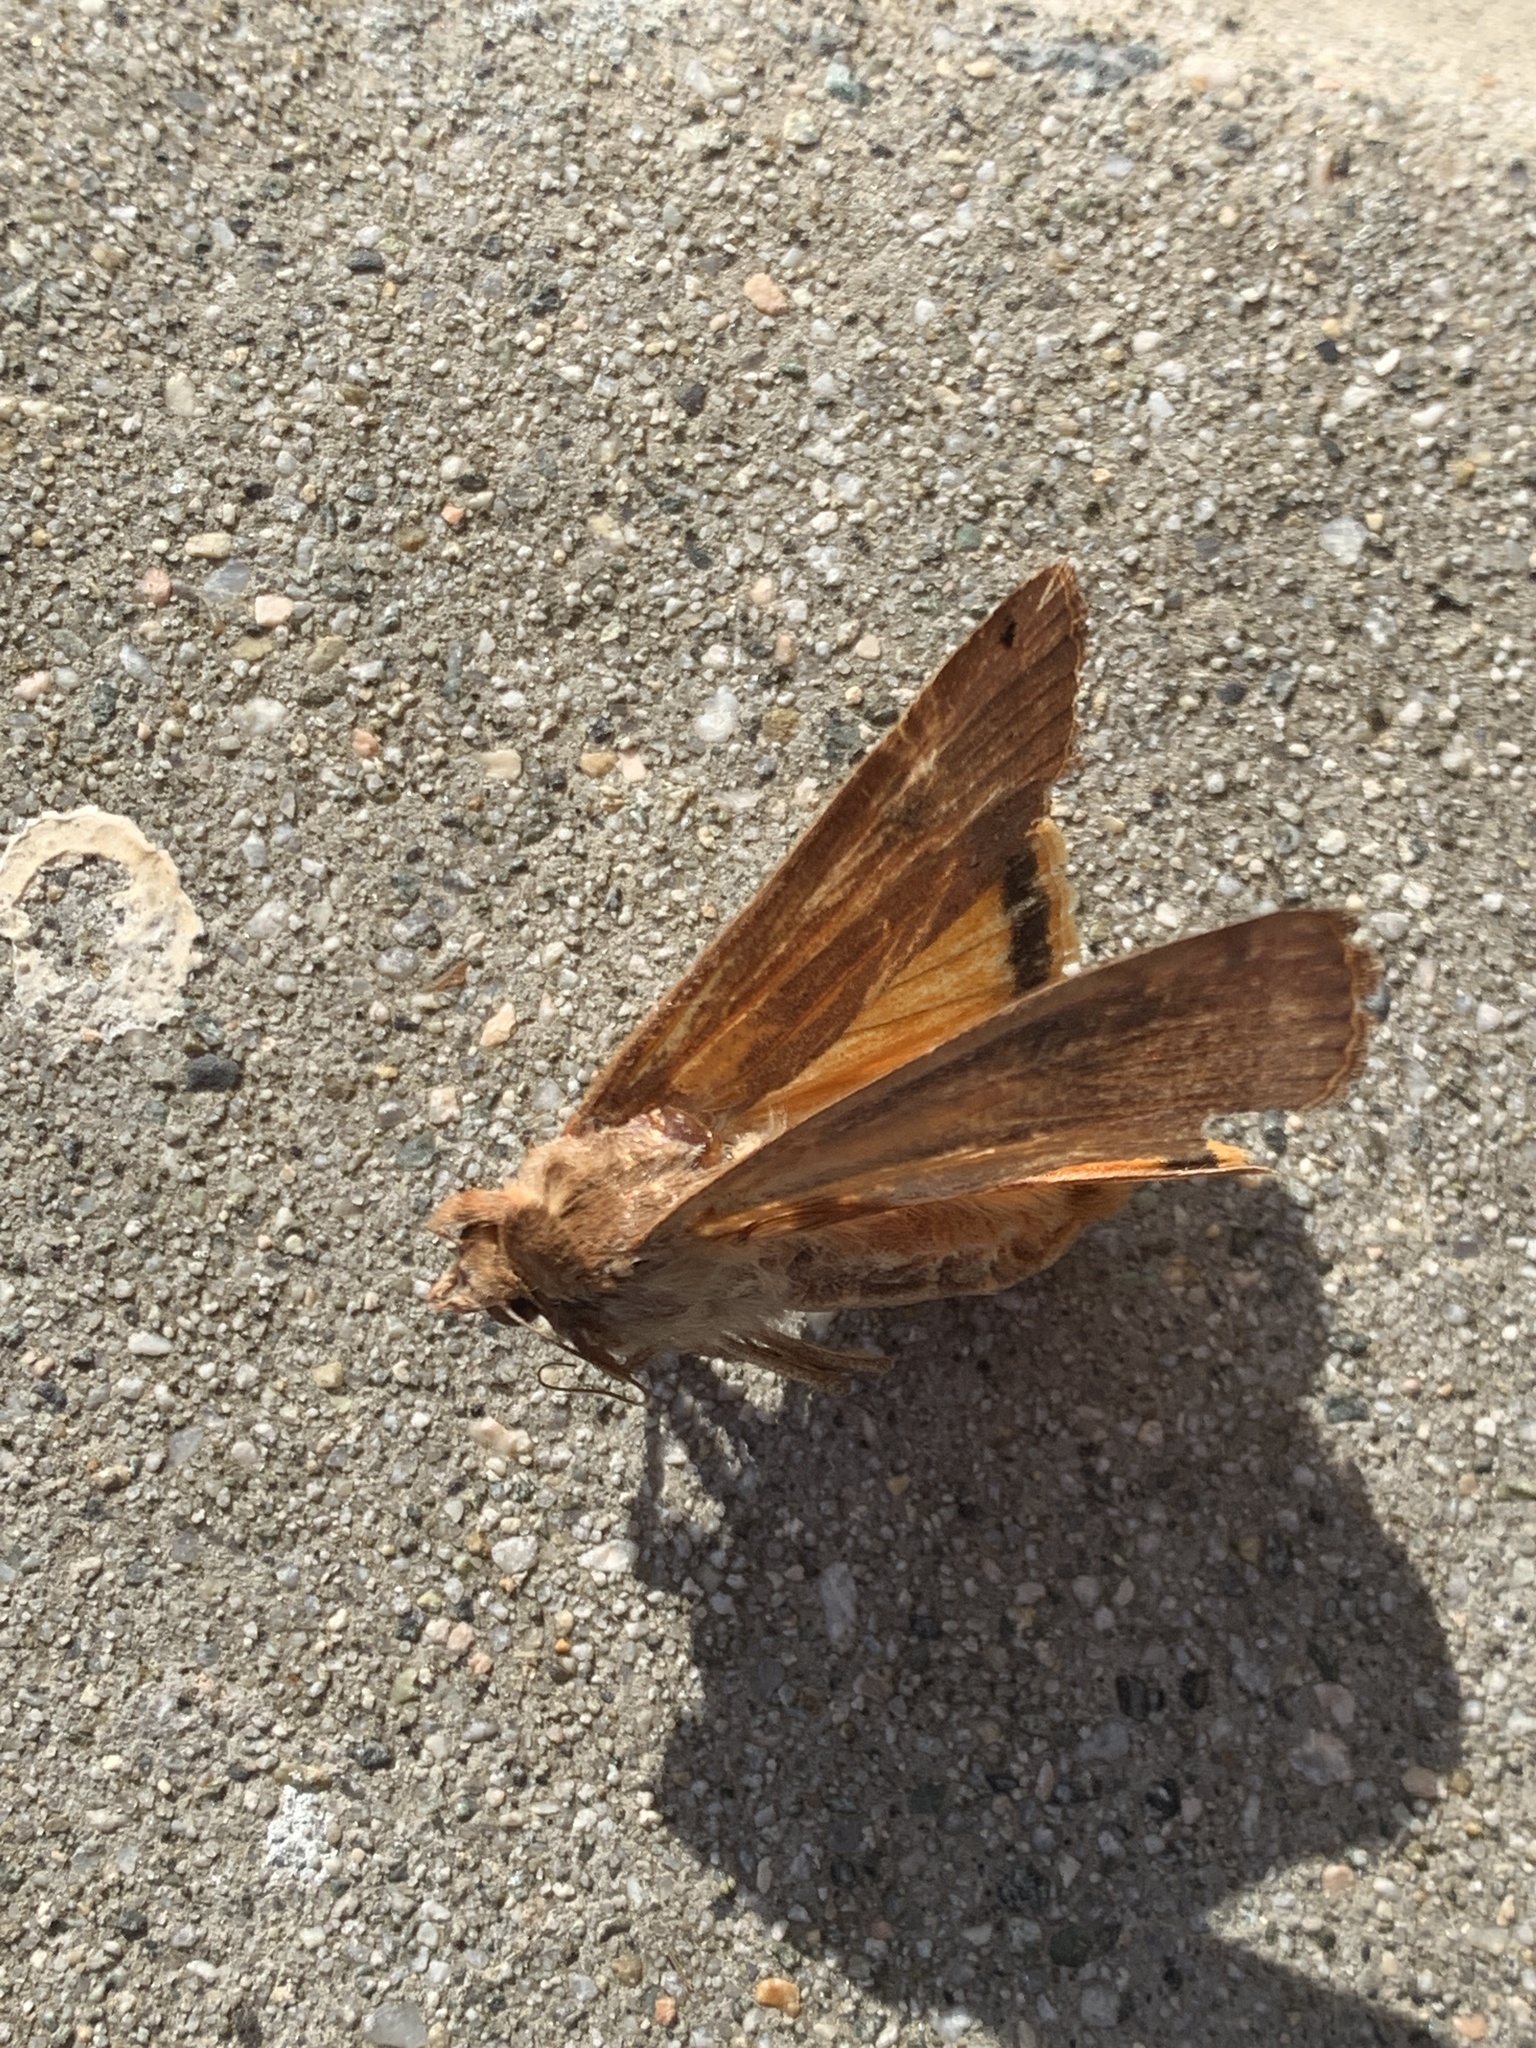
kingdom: Animalia
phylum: Arthropoda
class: Insecta
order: Lepidoptera
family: Noctuidae
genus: Noctua
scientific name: Noctua pronuba
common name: Large yellow underwing
